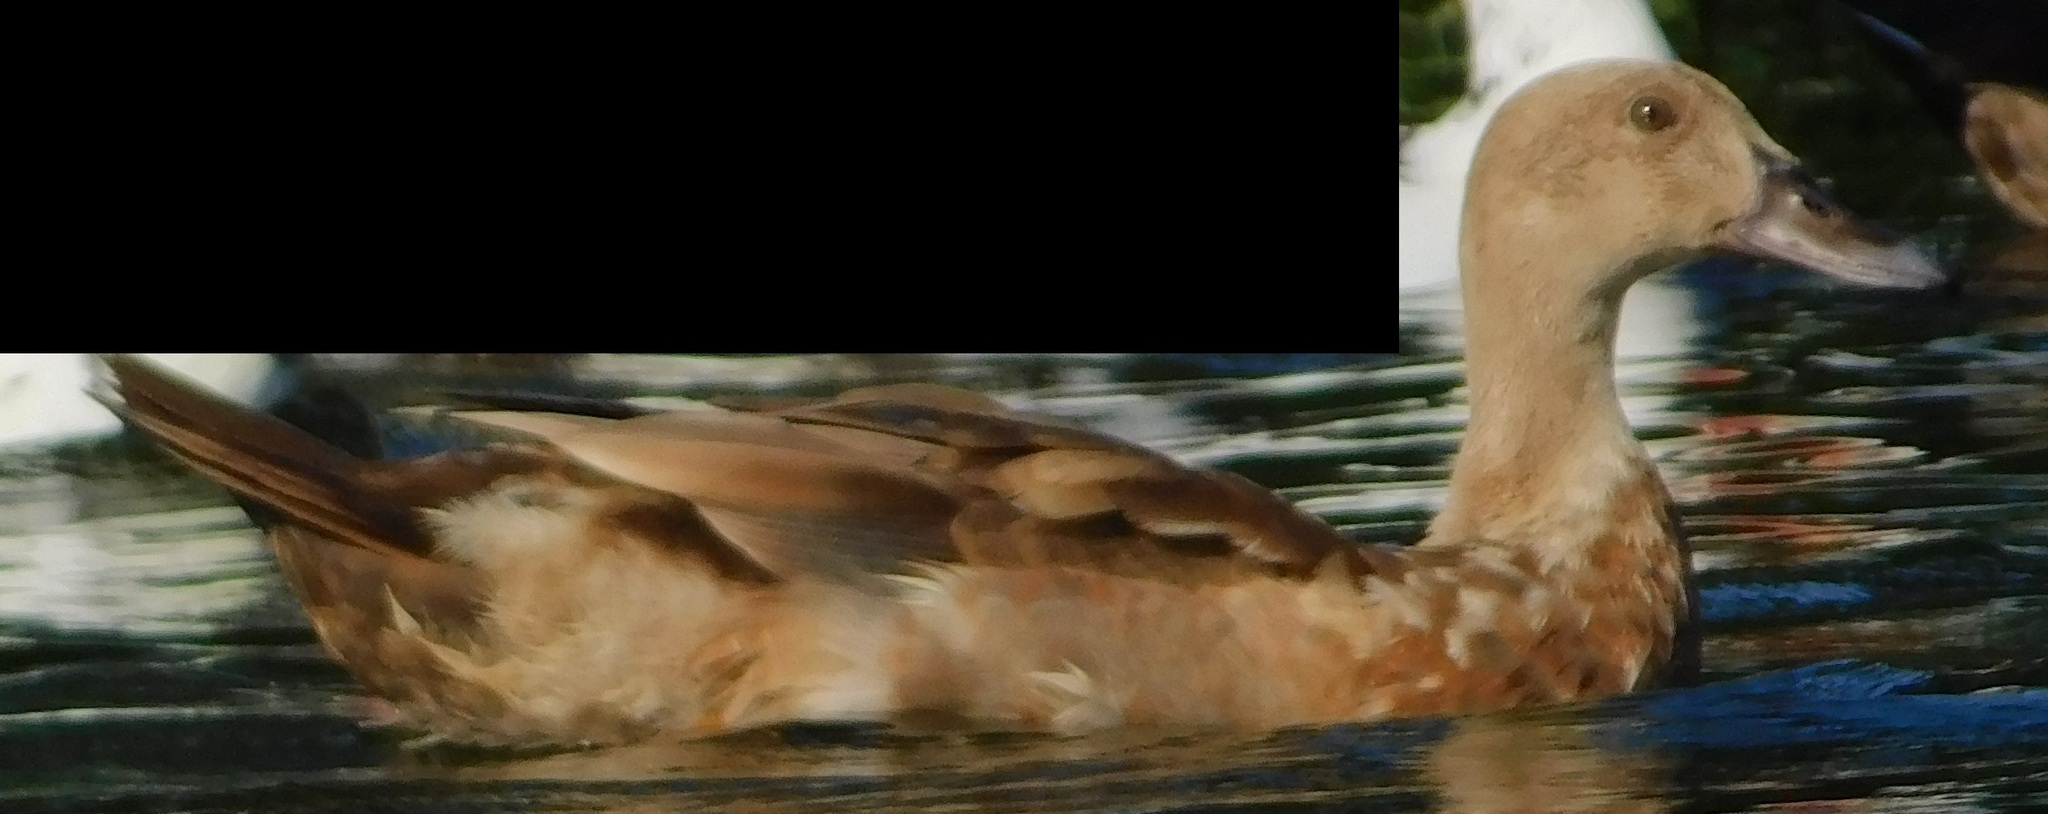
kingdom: Animalia
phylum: Chordata
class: Aves
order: Anseriformes
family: Anatidae
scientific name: Anatidae
